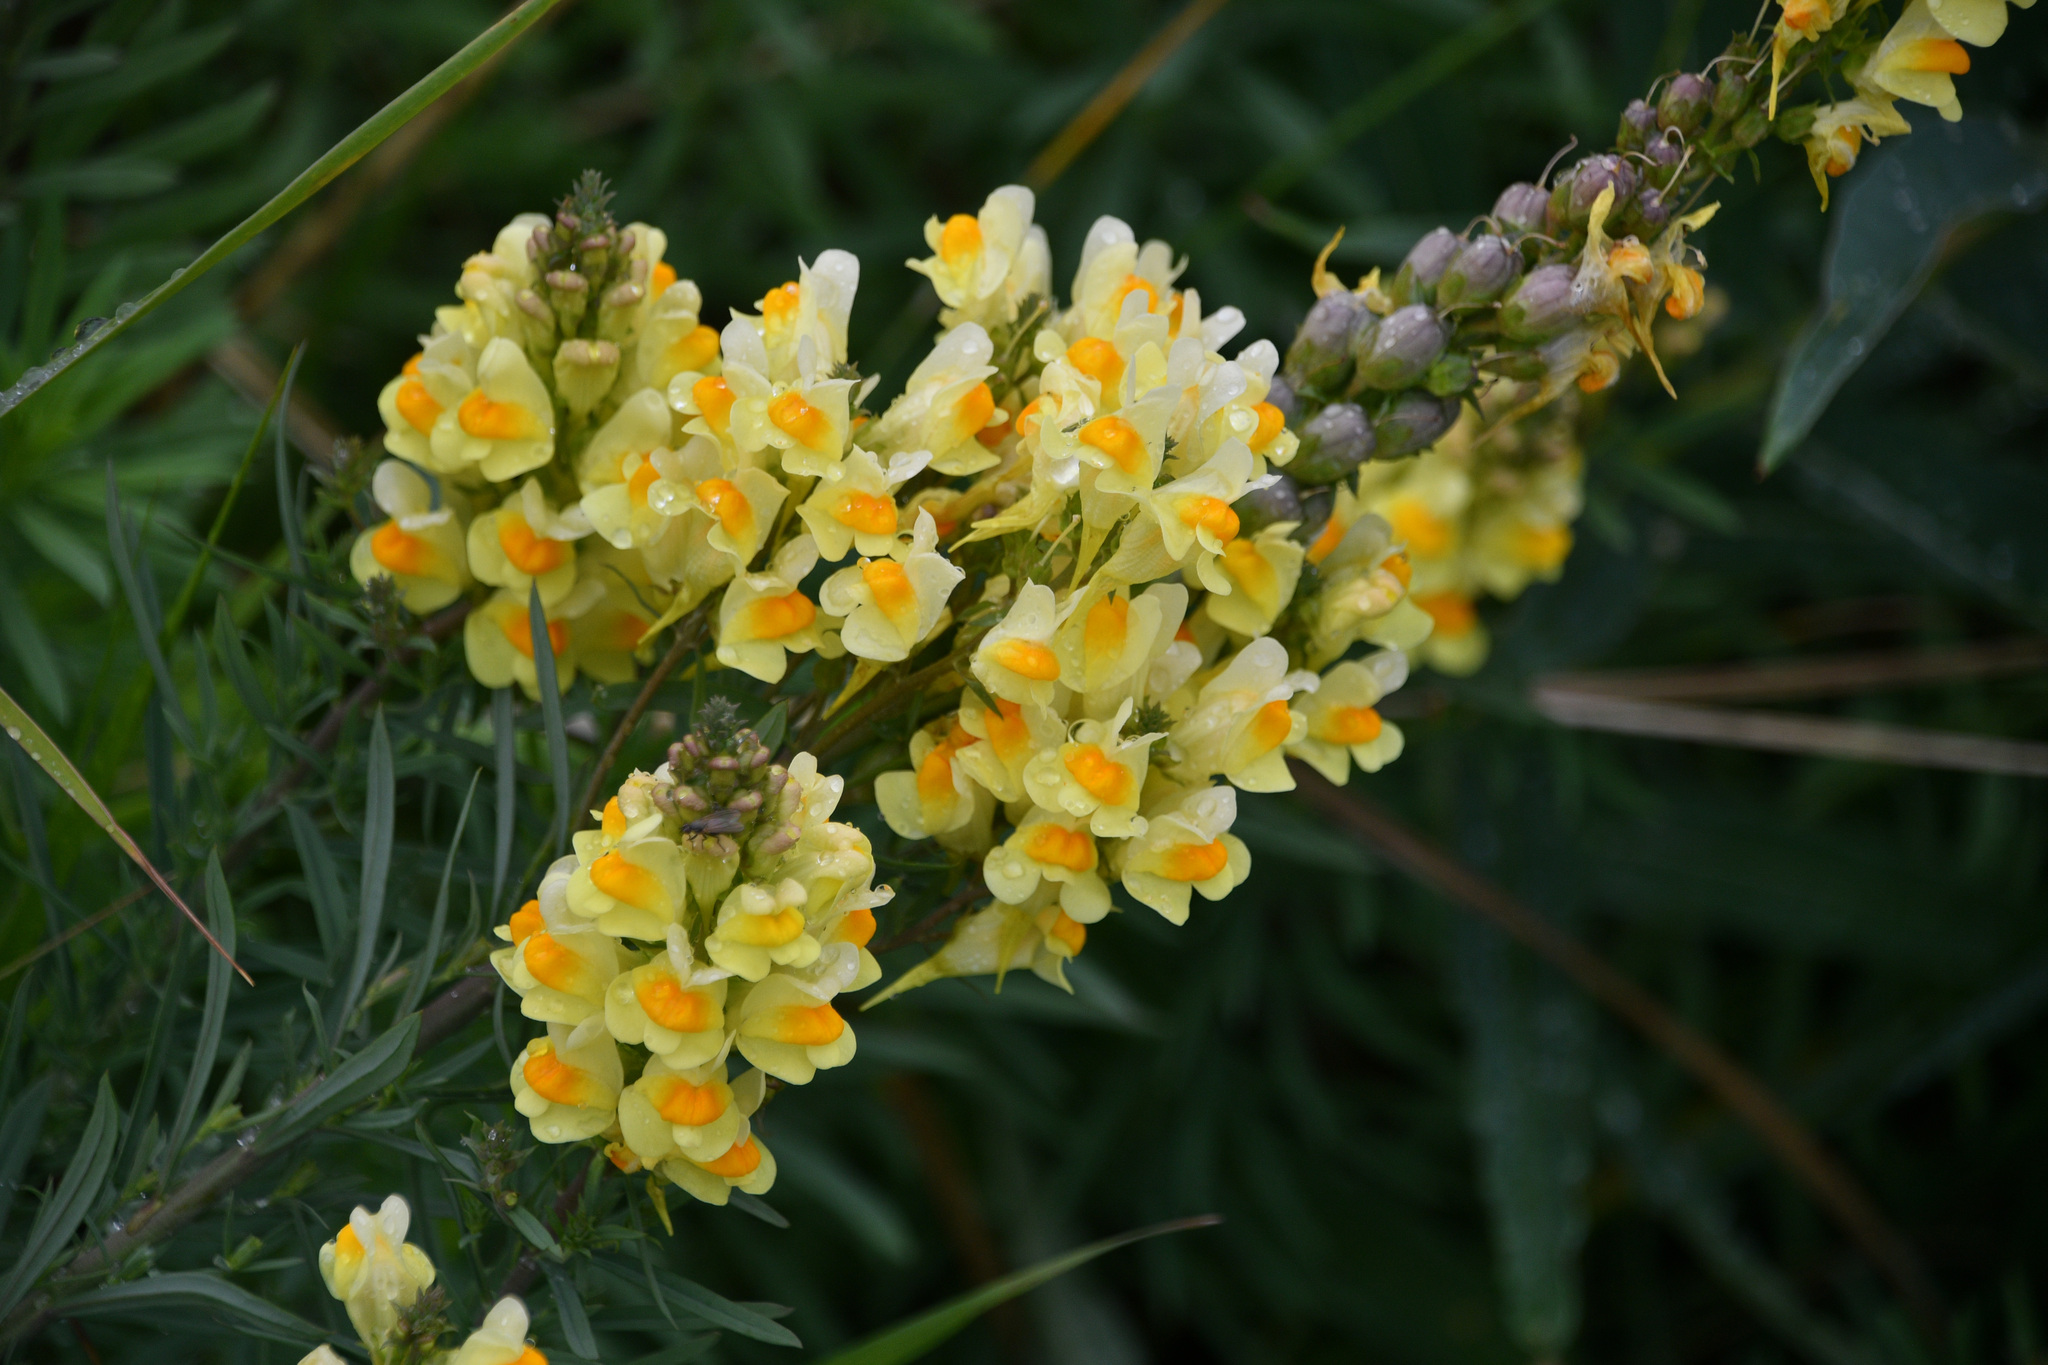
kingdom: Plantae
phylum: Tracheophyta
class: Magnoliopsida
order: Lamiales
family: Plantaginaceae
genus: Linaria
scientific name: Linaria vulgaris
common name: Butter and eggs
